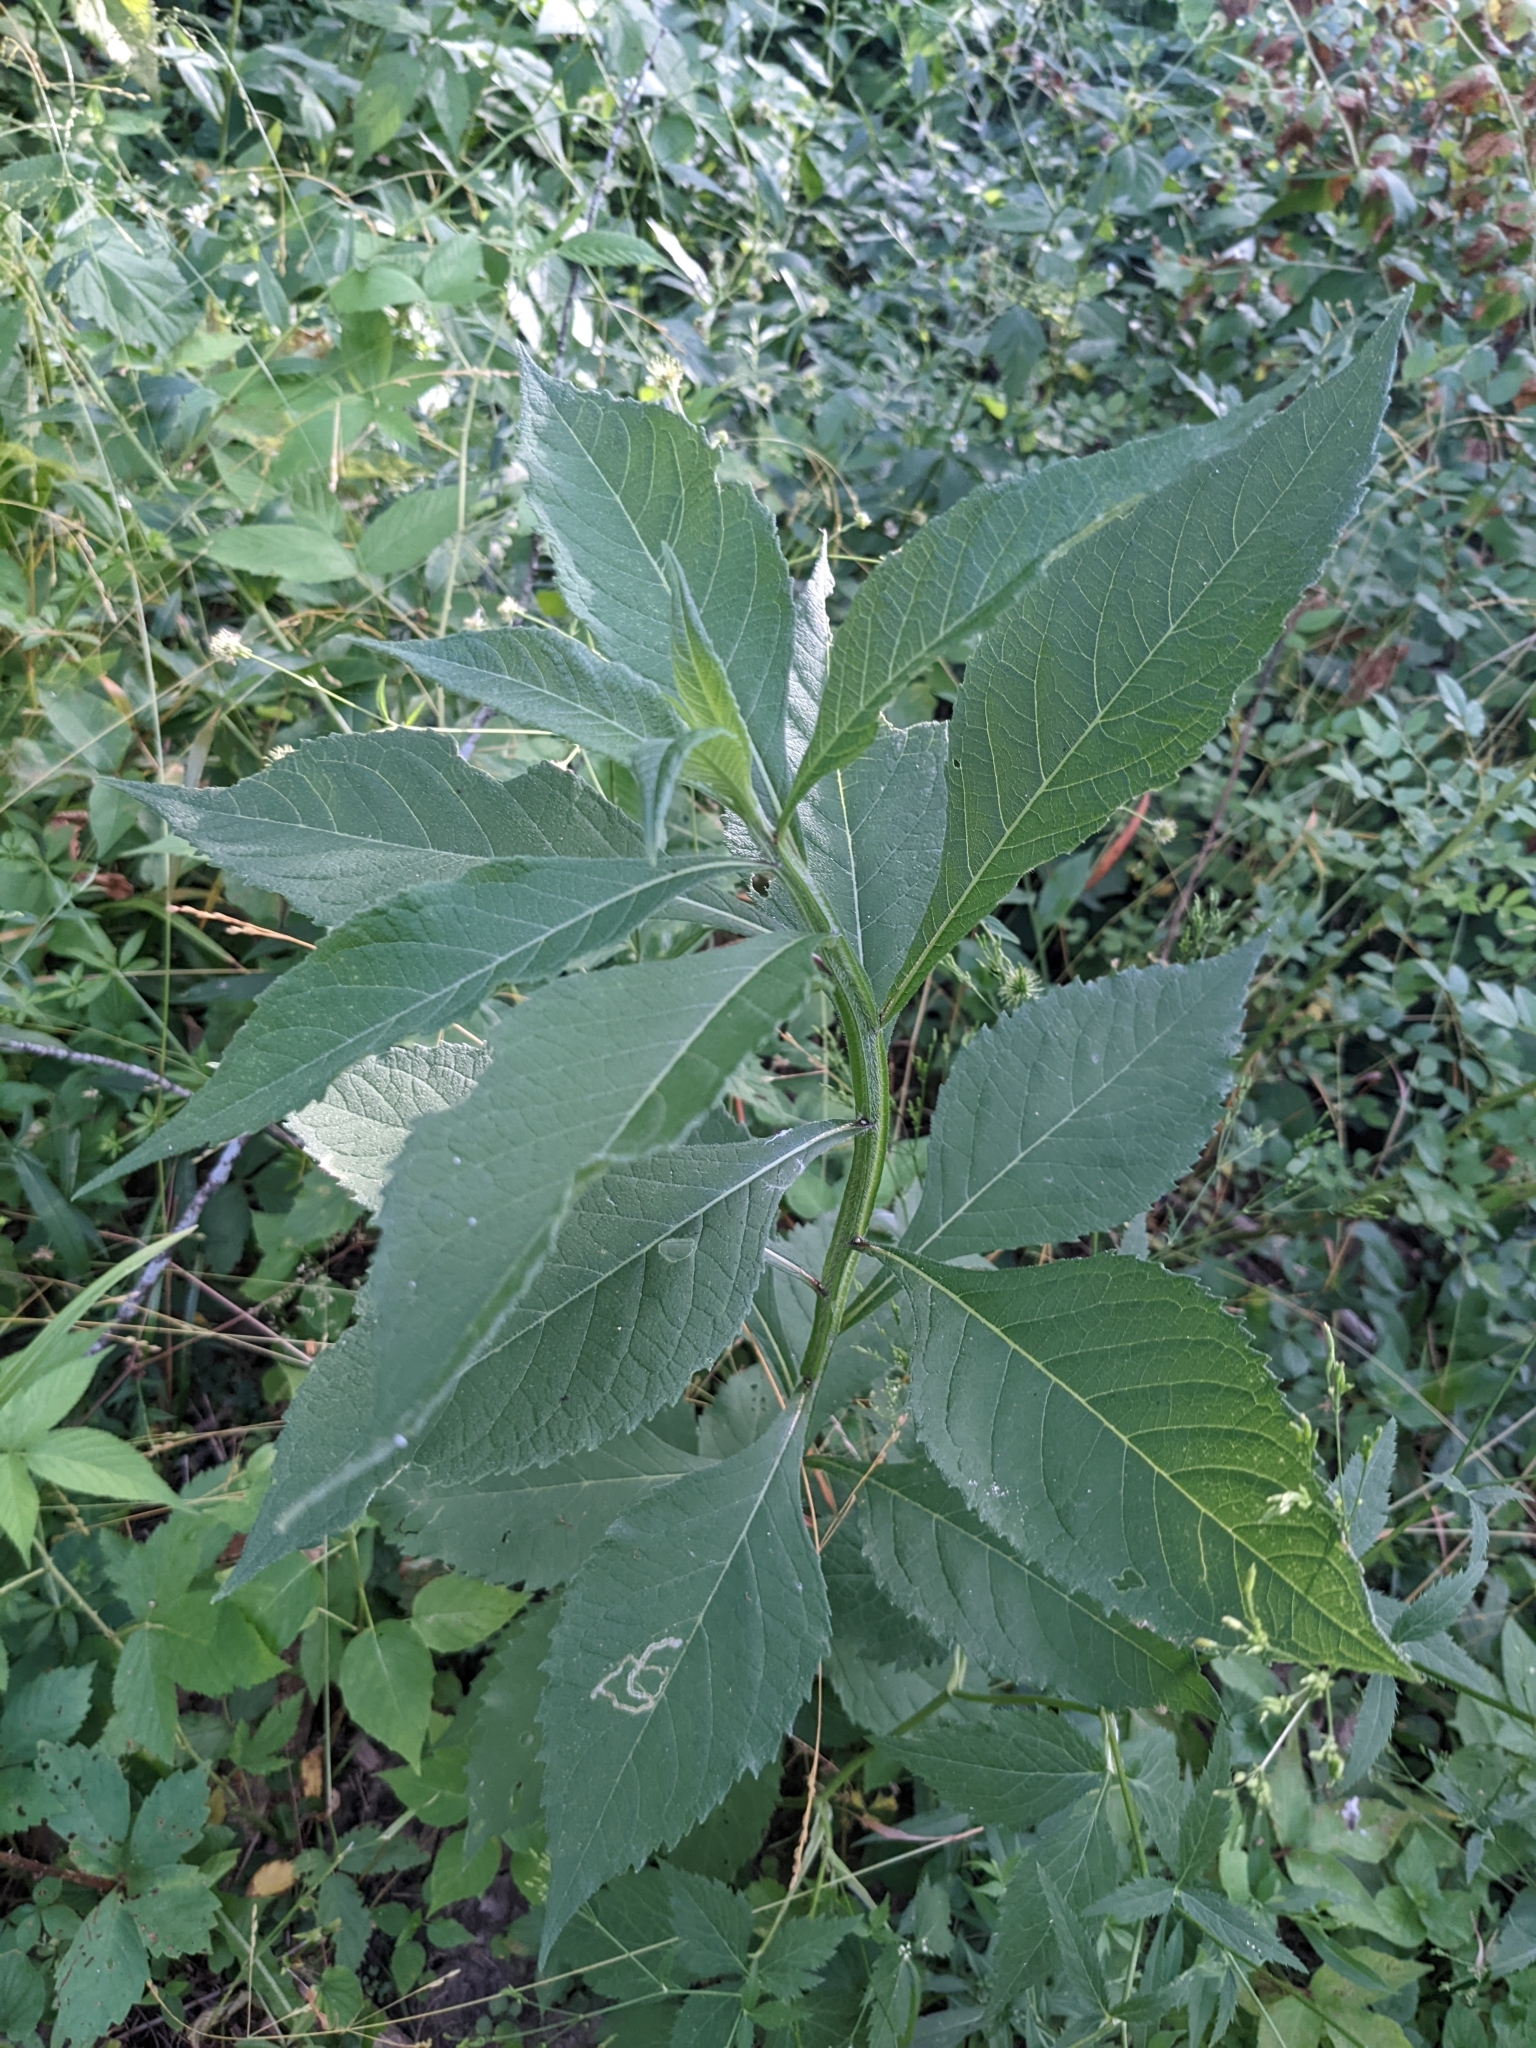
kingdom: Plantae
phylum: Tracheophyta
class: Magnoliopsida
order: Asterales
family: Asteraceae
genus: Verbesina
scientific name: Verbesina alternifolia
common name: Wingstem
